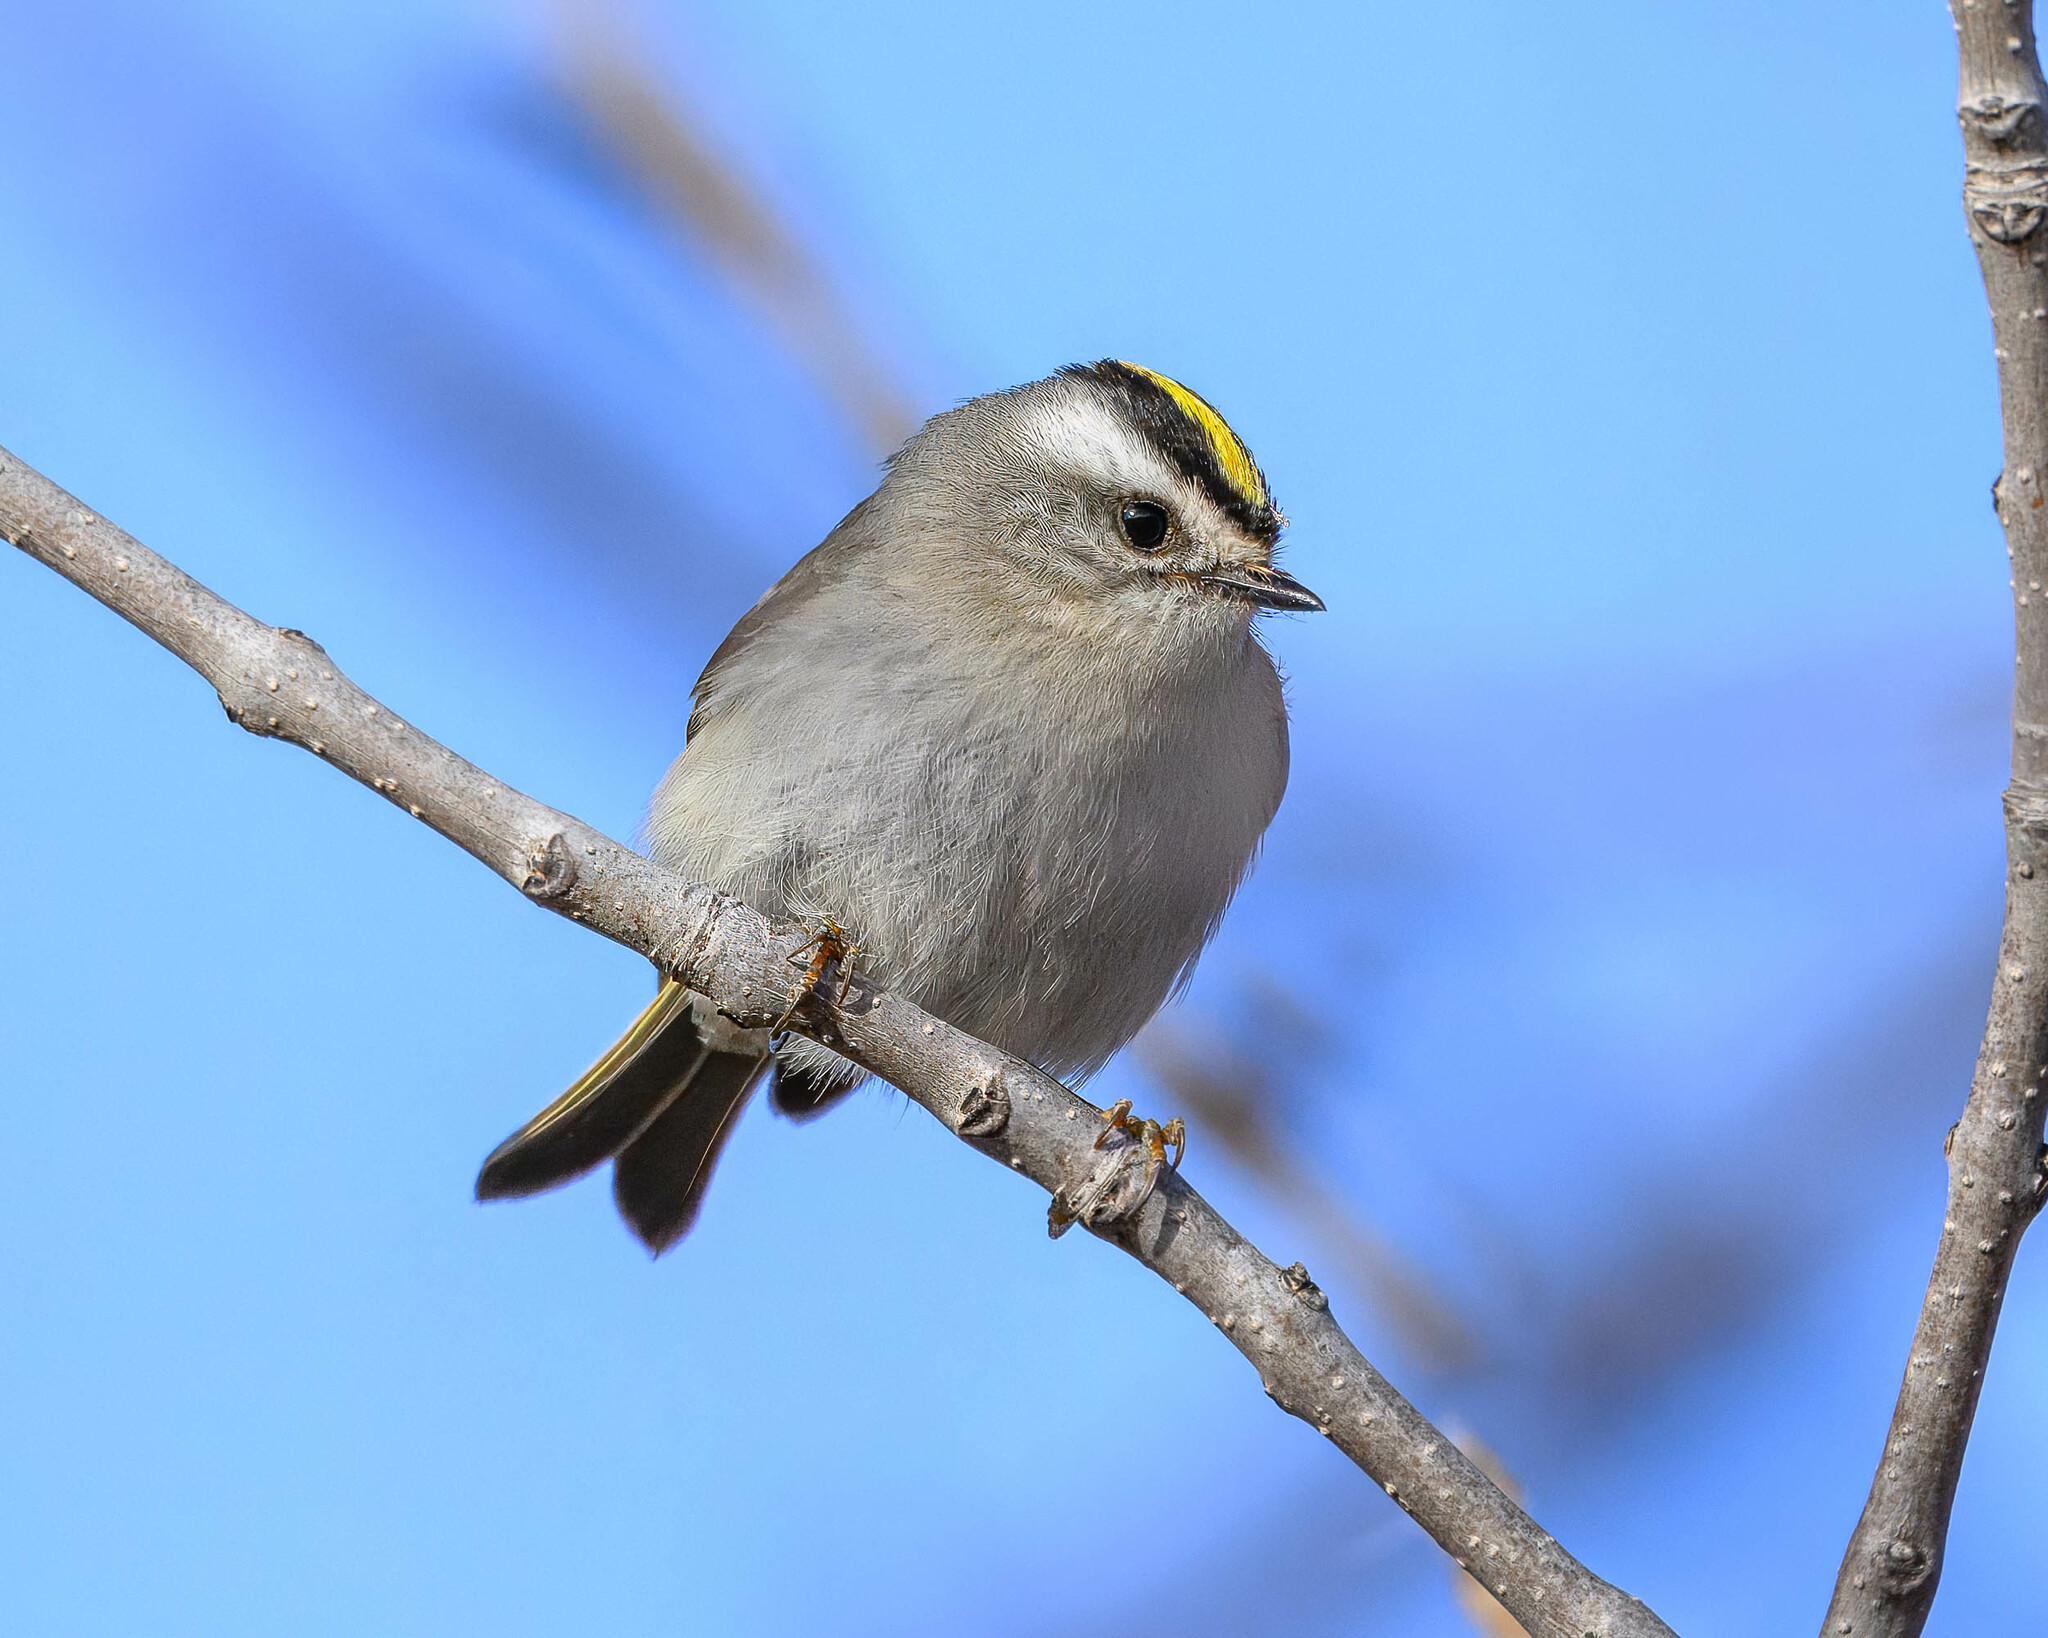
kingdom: Animalia
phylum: Chordata
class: Aves
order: Passeriformes
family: Regulidae
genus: Regulus
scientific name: Regulus satrapa
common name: Golden-crowned kinglet
